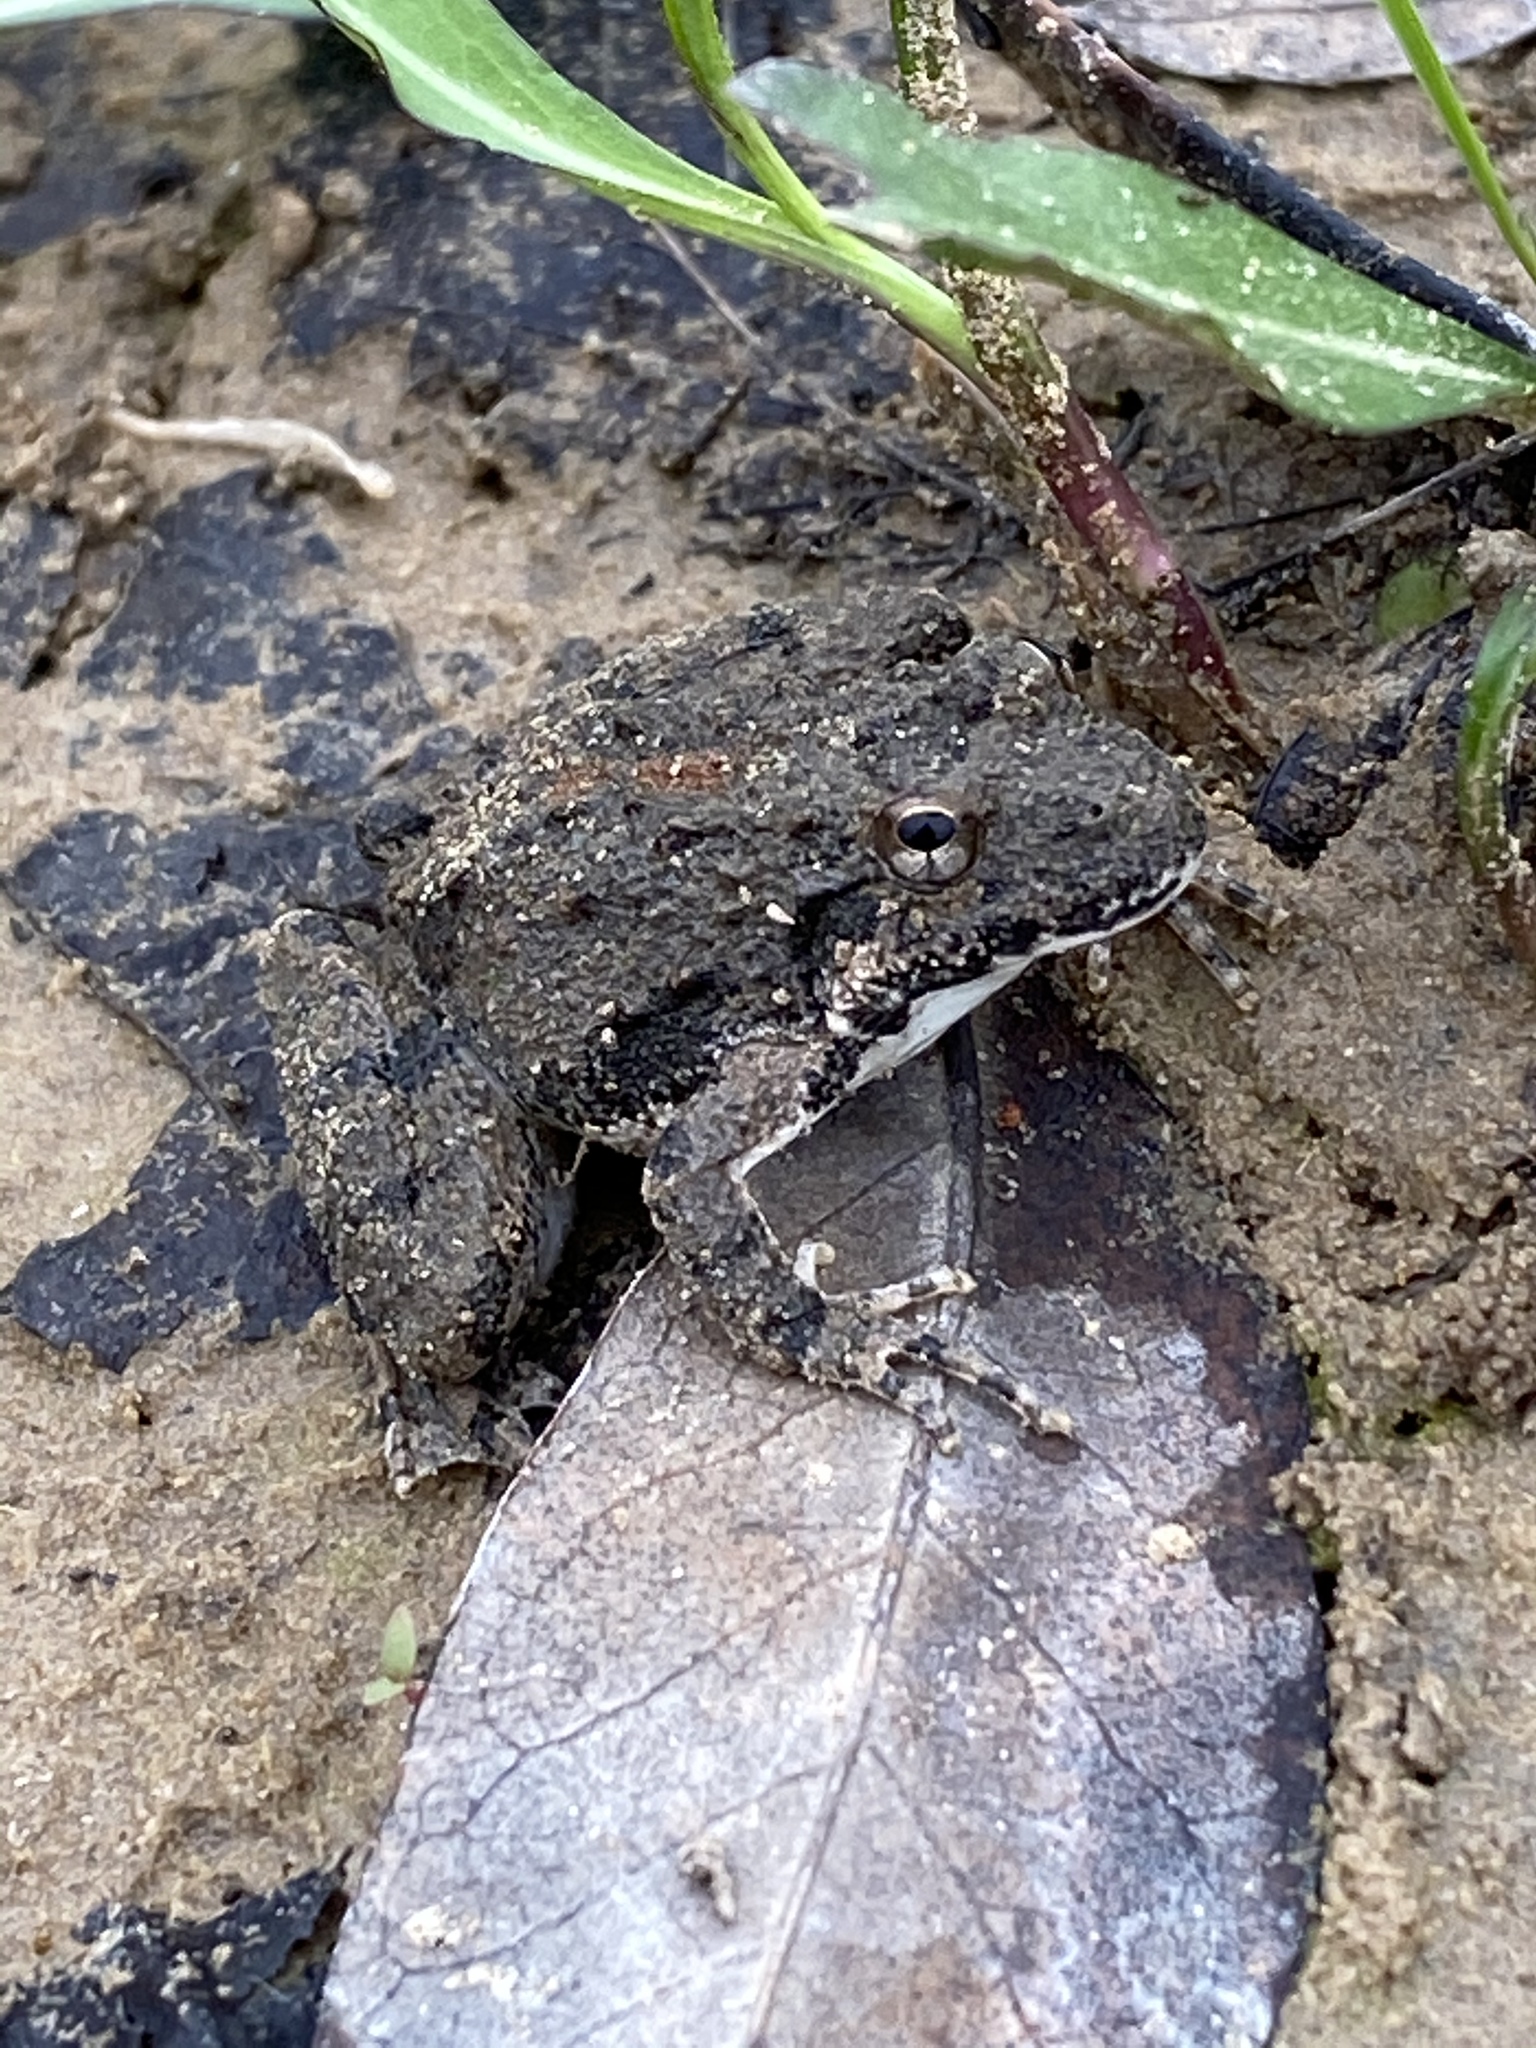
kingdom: Animalia
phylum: Chordata
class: Amphibia
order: Anura
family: Hylidae
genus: Acris
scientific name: Acris blanchardi
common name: Blanchard's cricket frog
